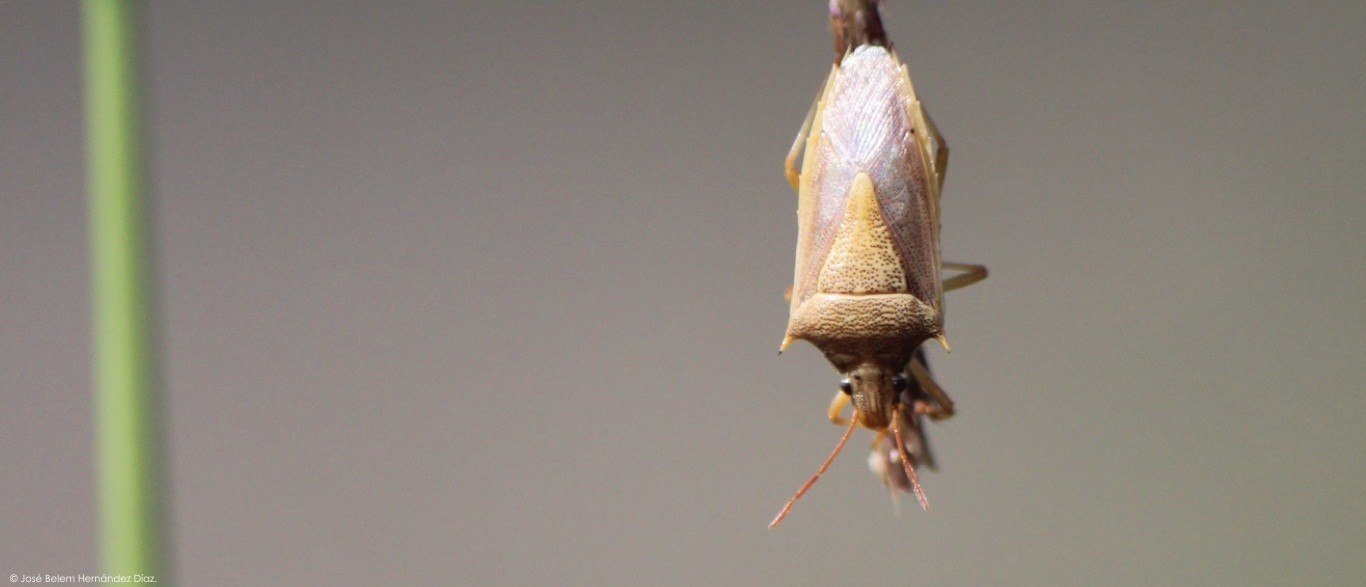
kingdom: Animalia
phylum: Arthropoda
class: Insecta
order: Hemiptera
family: Pentatomidae
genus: Oebalus
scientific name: Oebalus pugnax
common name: Rice stink bug
